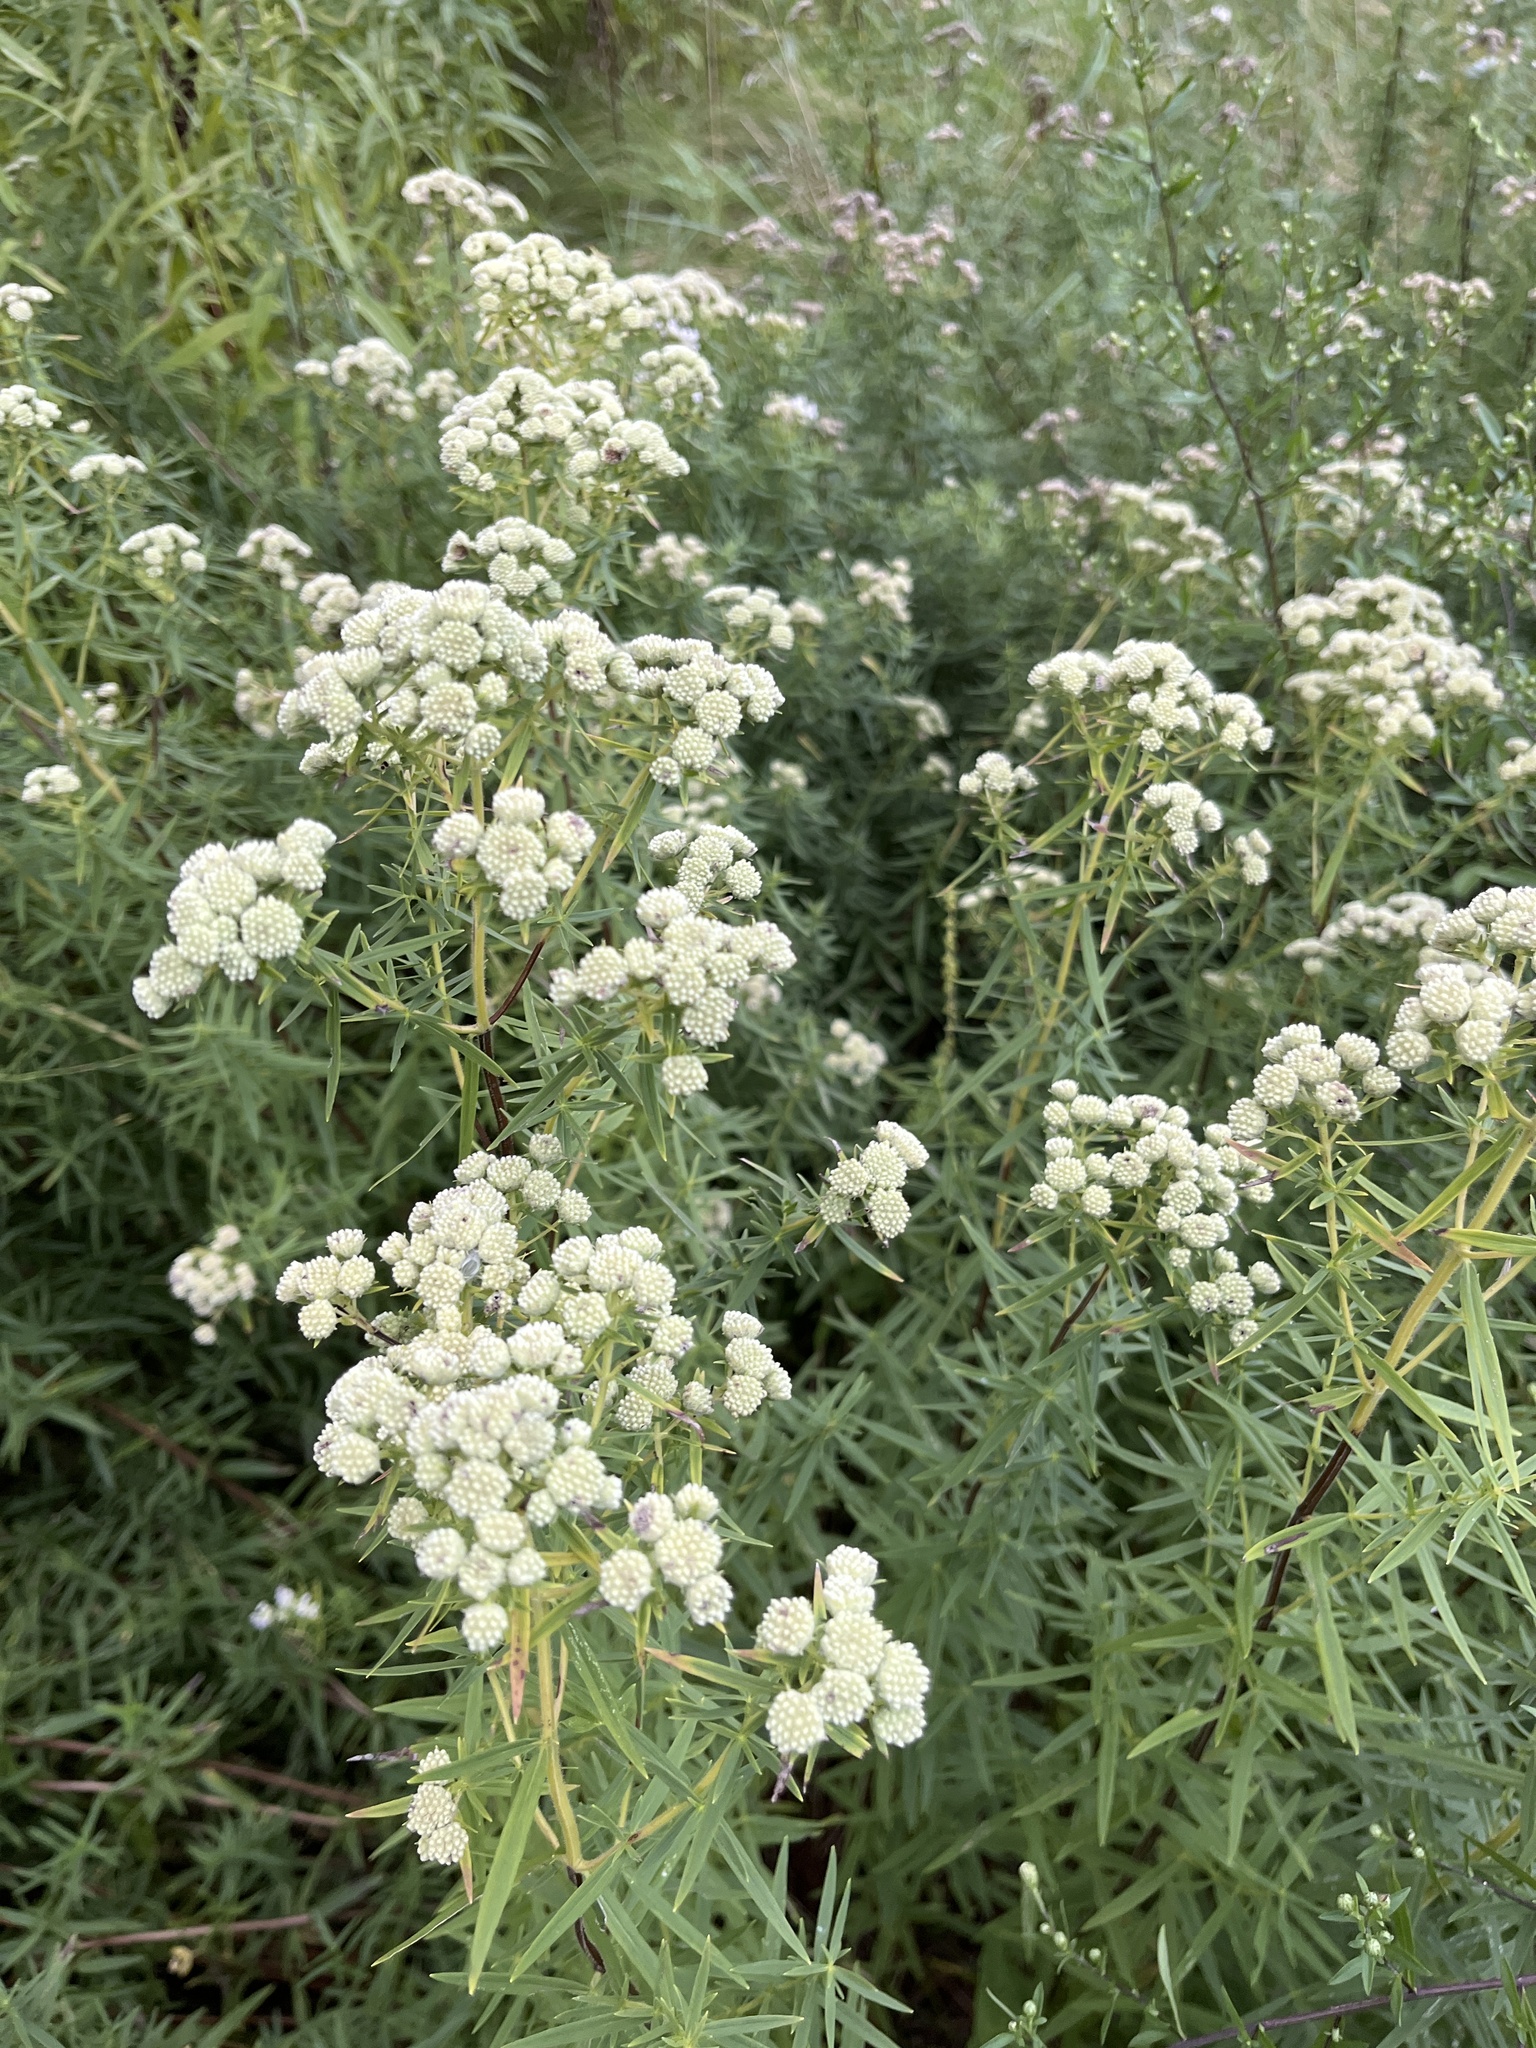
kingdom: Plantae
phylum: Tracheophyta
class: Magnoliopsida
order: Lamiales
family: Lamiaceae
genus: Pycnanthemum
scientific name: Pycnanthemum virginianum
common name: Virginia mountain-mint
